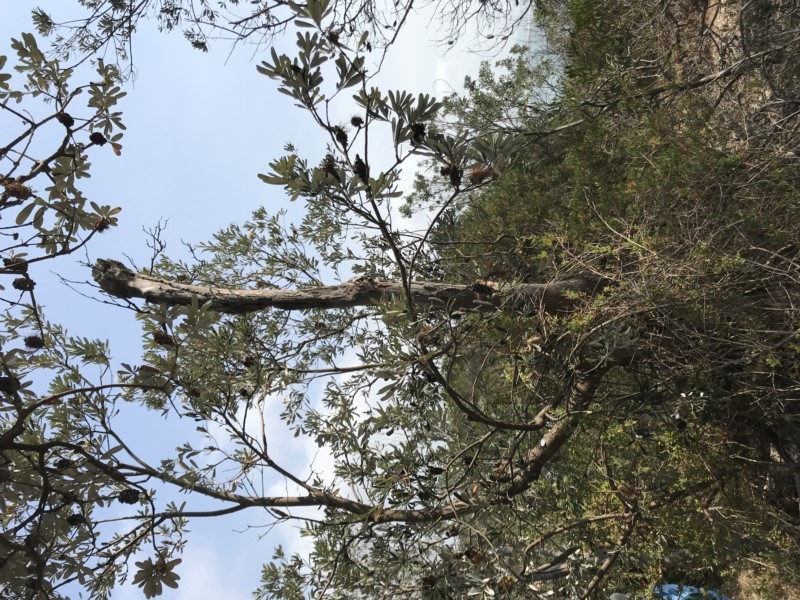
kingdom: Plantae
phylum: Tracheophyta
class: Magnoliopsida
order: Proteales
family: Proteaceae
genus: Banksia
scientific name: Banksia integrifolia
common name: White-honeysuckle
